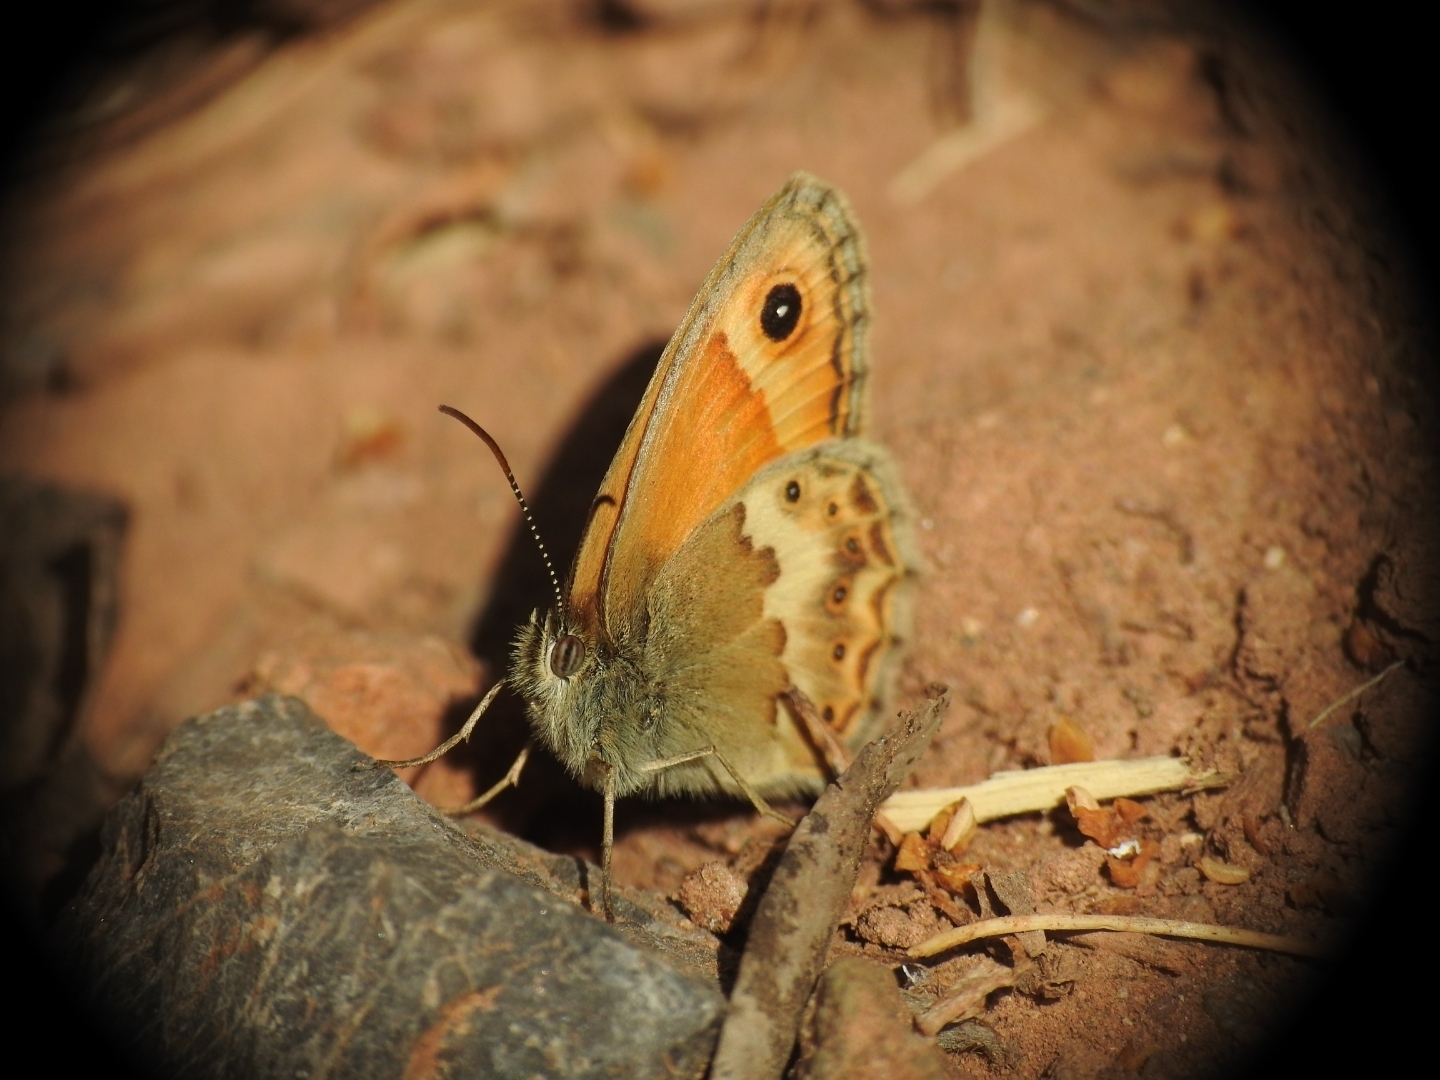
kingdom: Animalia
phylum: Arthropoda
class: Insecta
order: Lepidoptera
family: Nymphalidae
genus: Coenonympha
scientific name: Coenonympha thyrsis
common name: Cretan small heath
